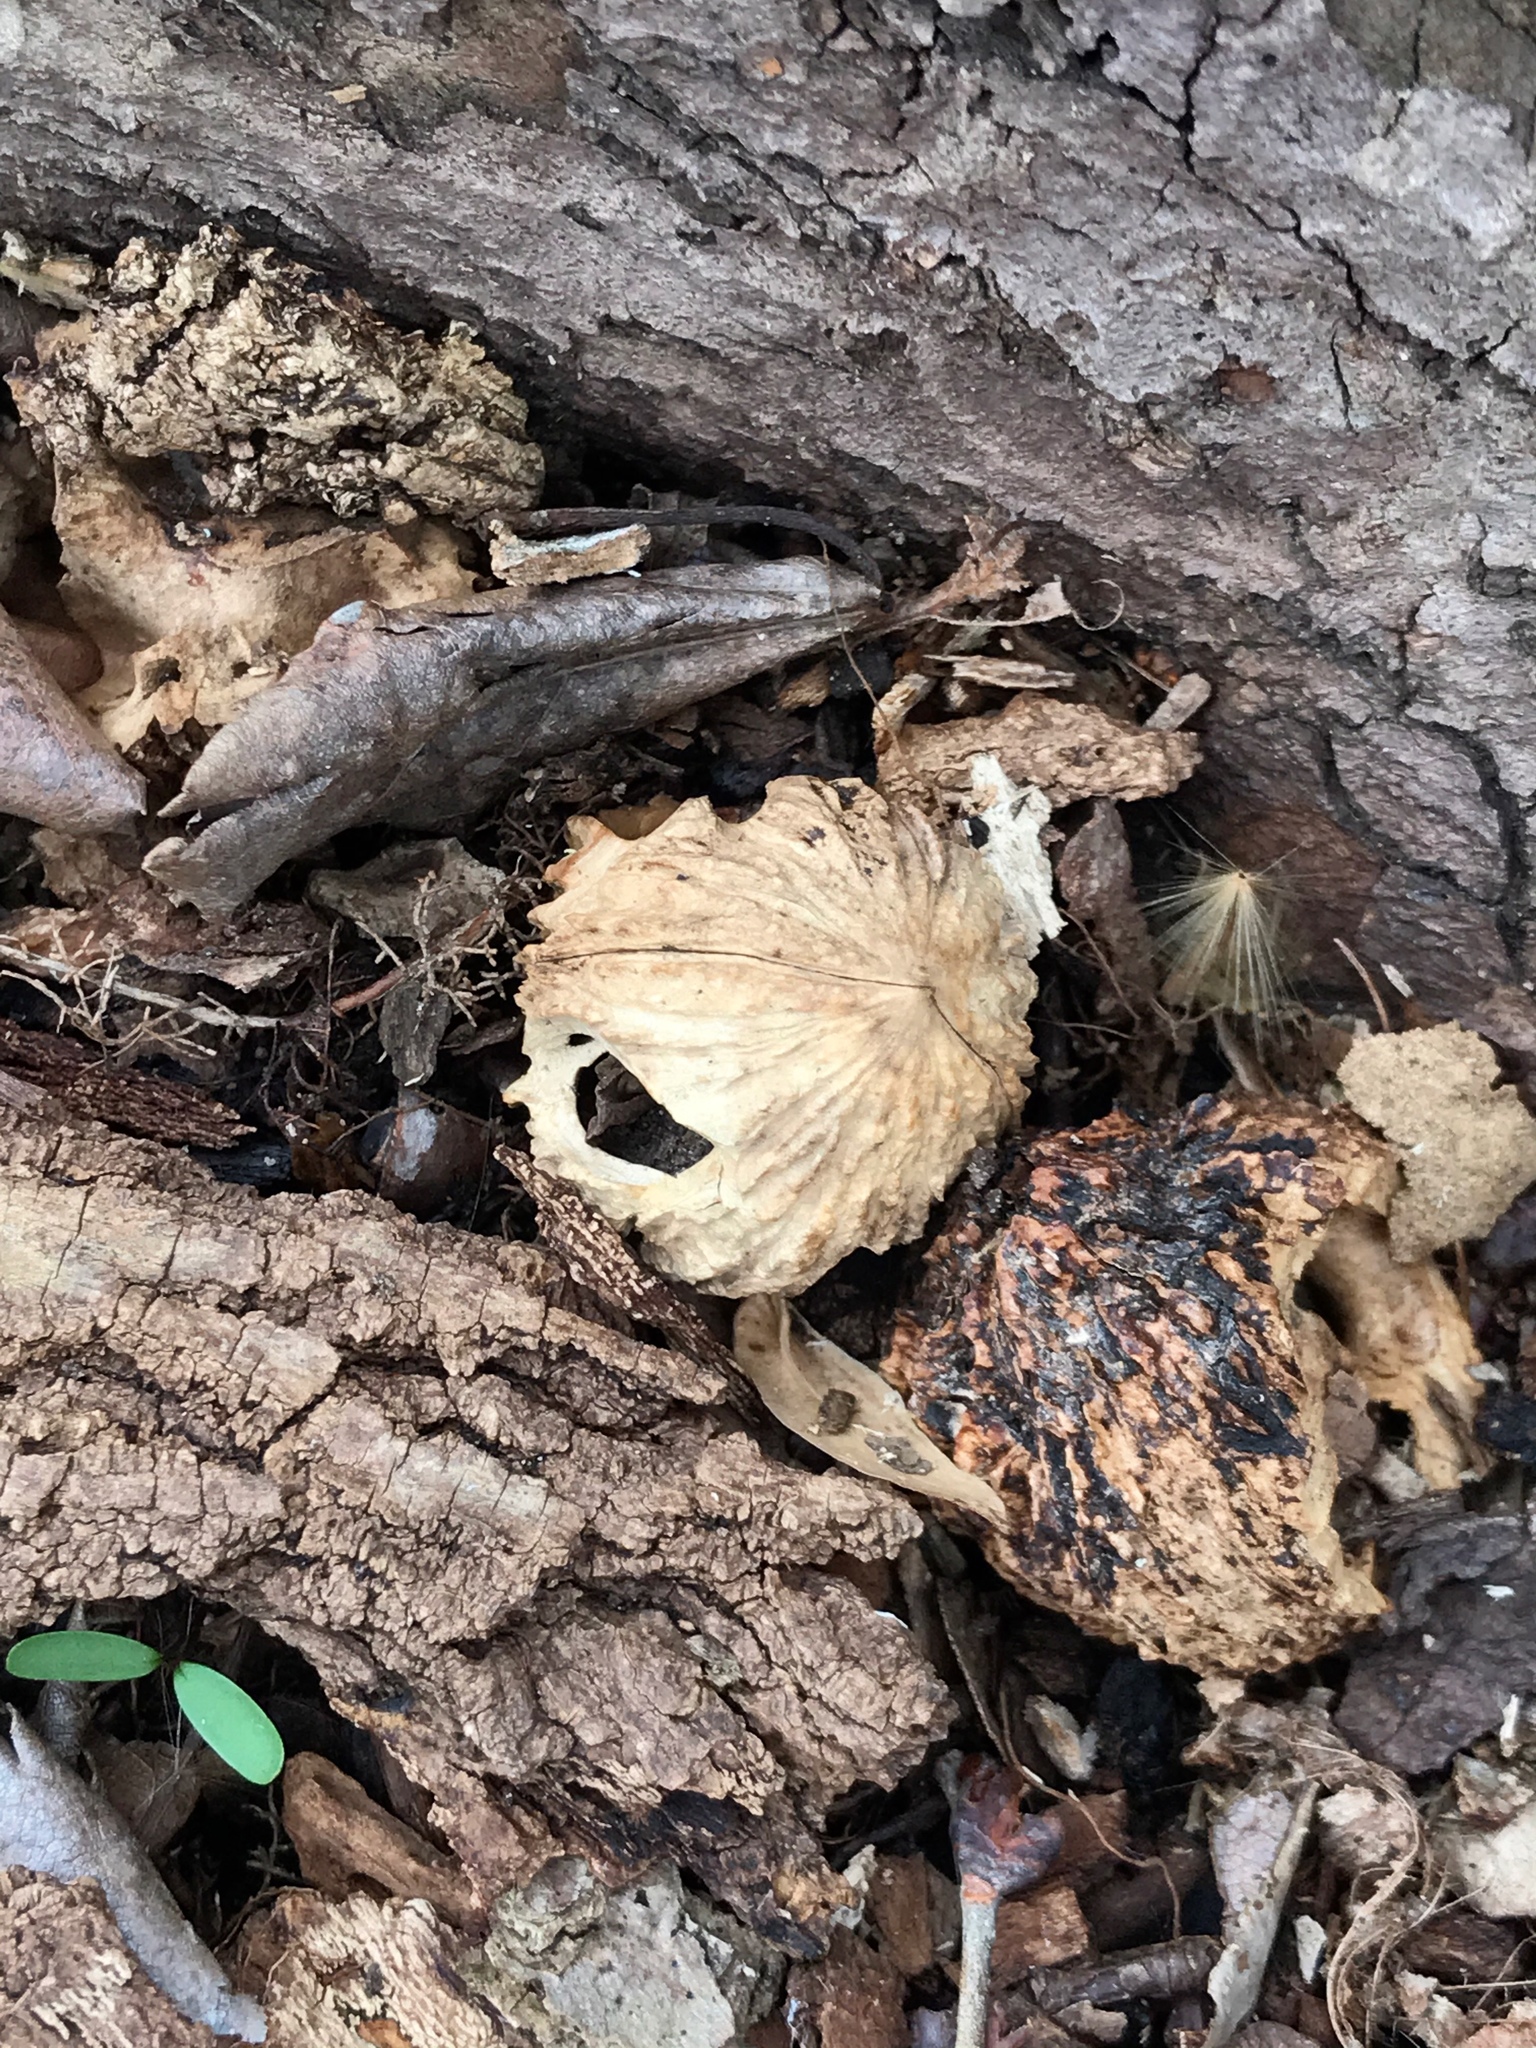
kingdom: Plantae
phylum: Tracheophyta
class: Magnoliopsida
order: Fagales
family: Juglandaceae
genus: Juglans
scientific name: Juglans nigra
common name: Black walnut
